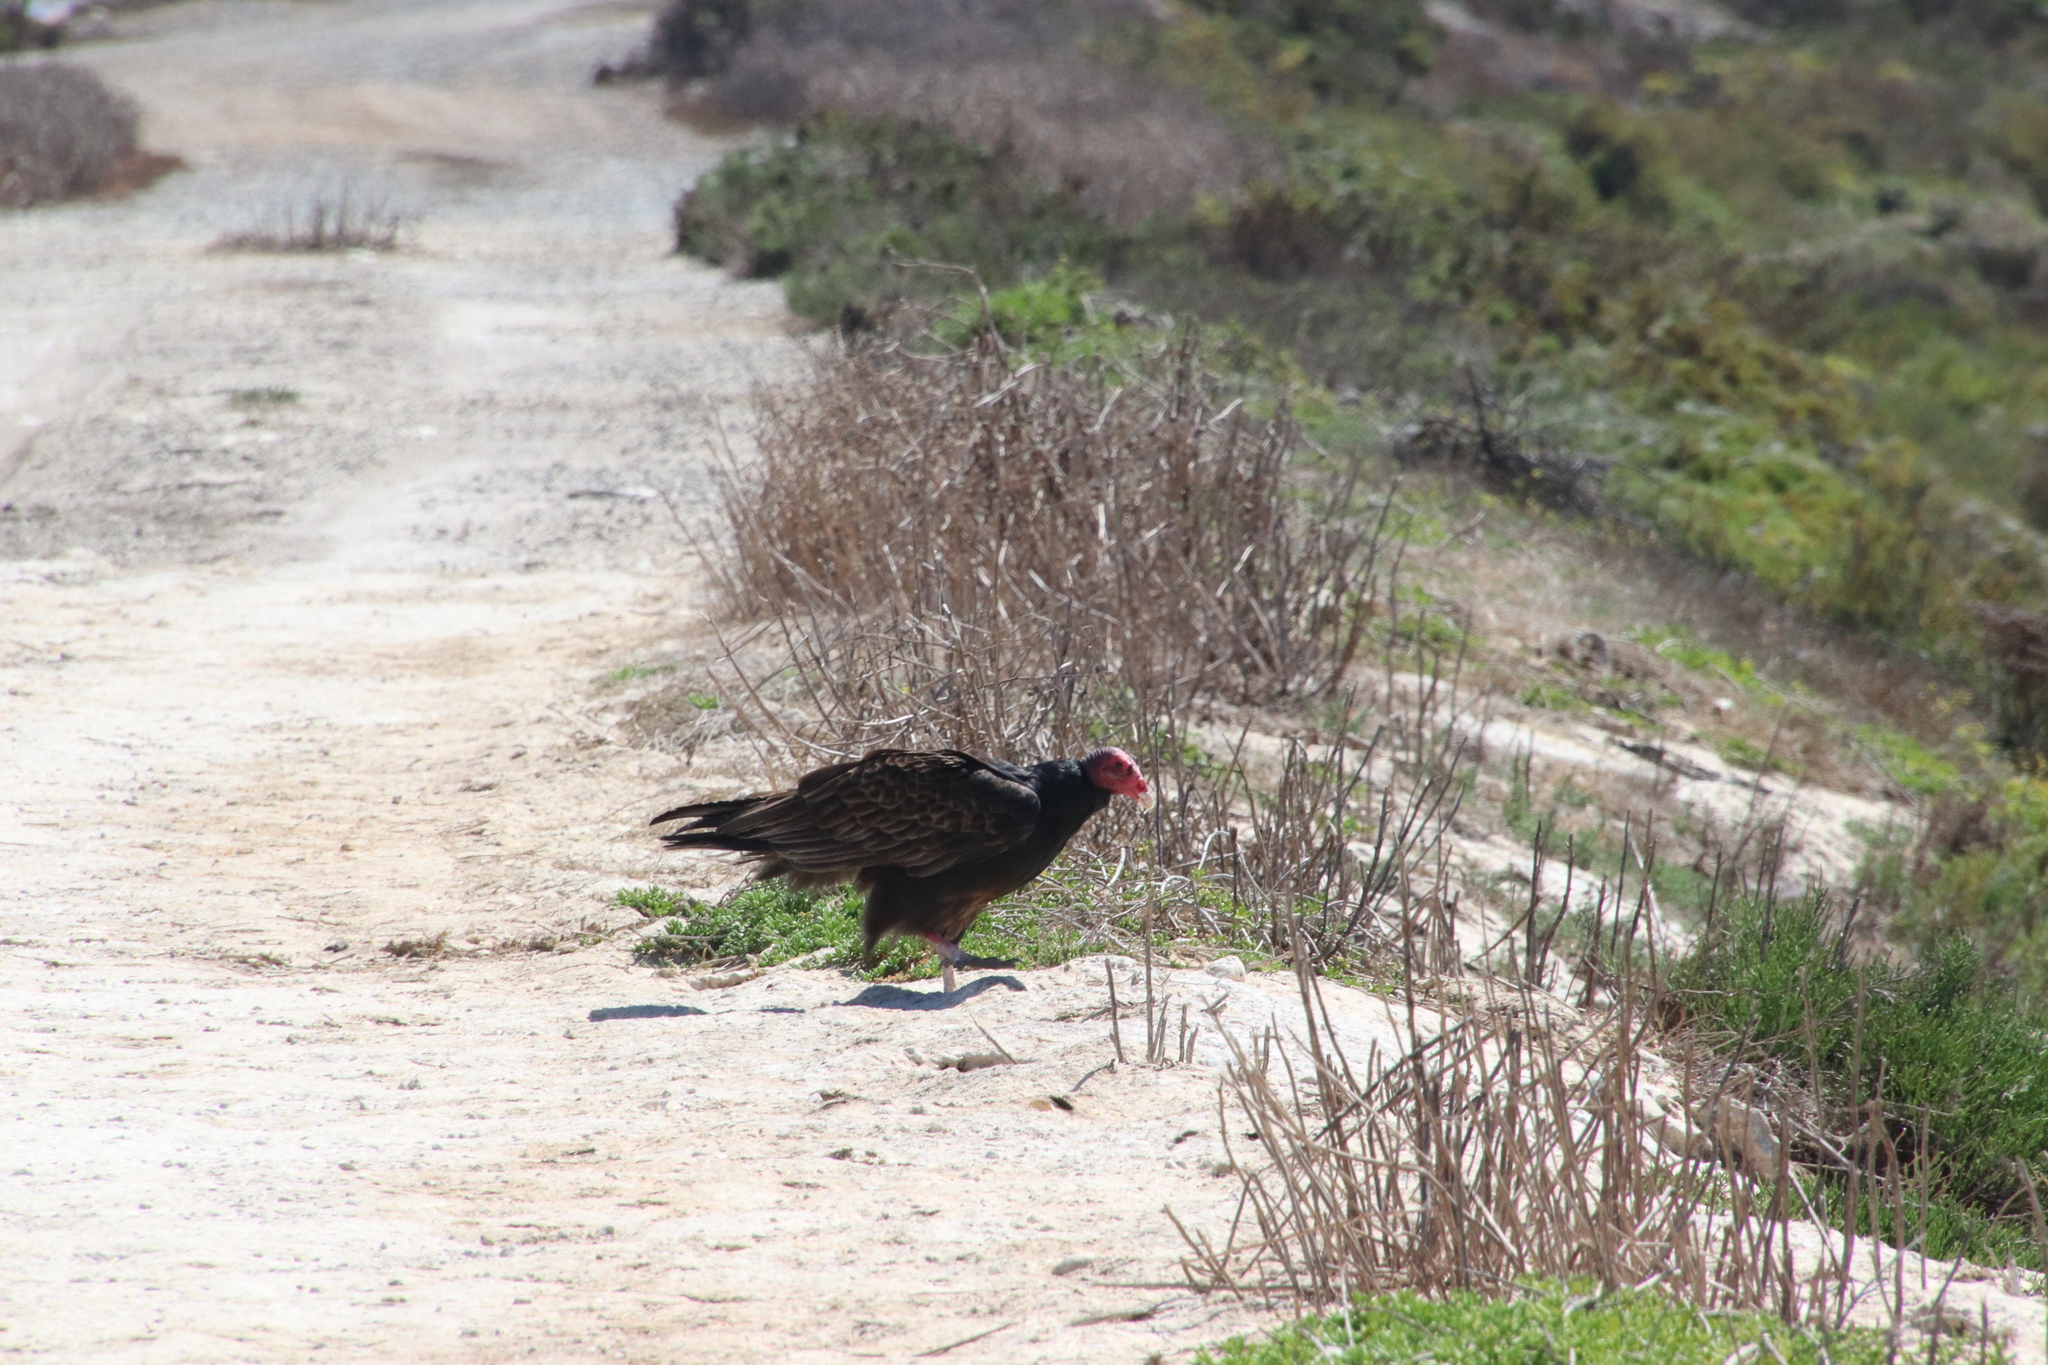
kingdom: Animalia
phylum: Chordata
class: Aves
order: Accipitriformes
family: Cathartidae
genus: Cathartes
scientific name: Cathartes aura
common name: Turkey vulture
